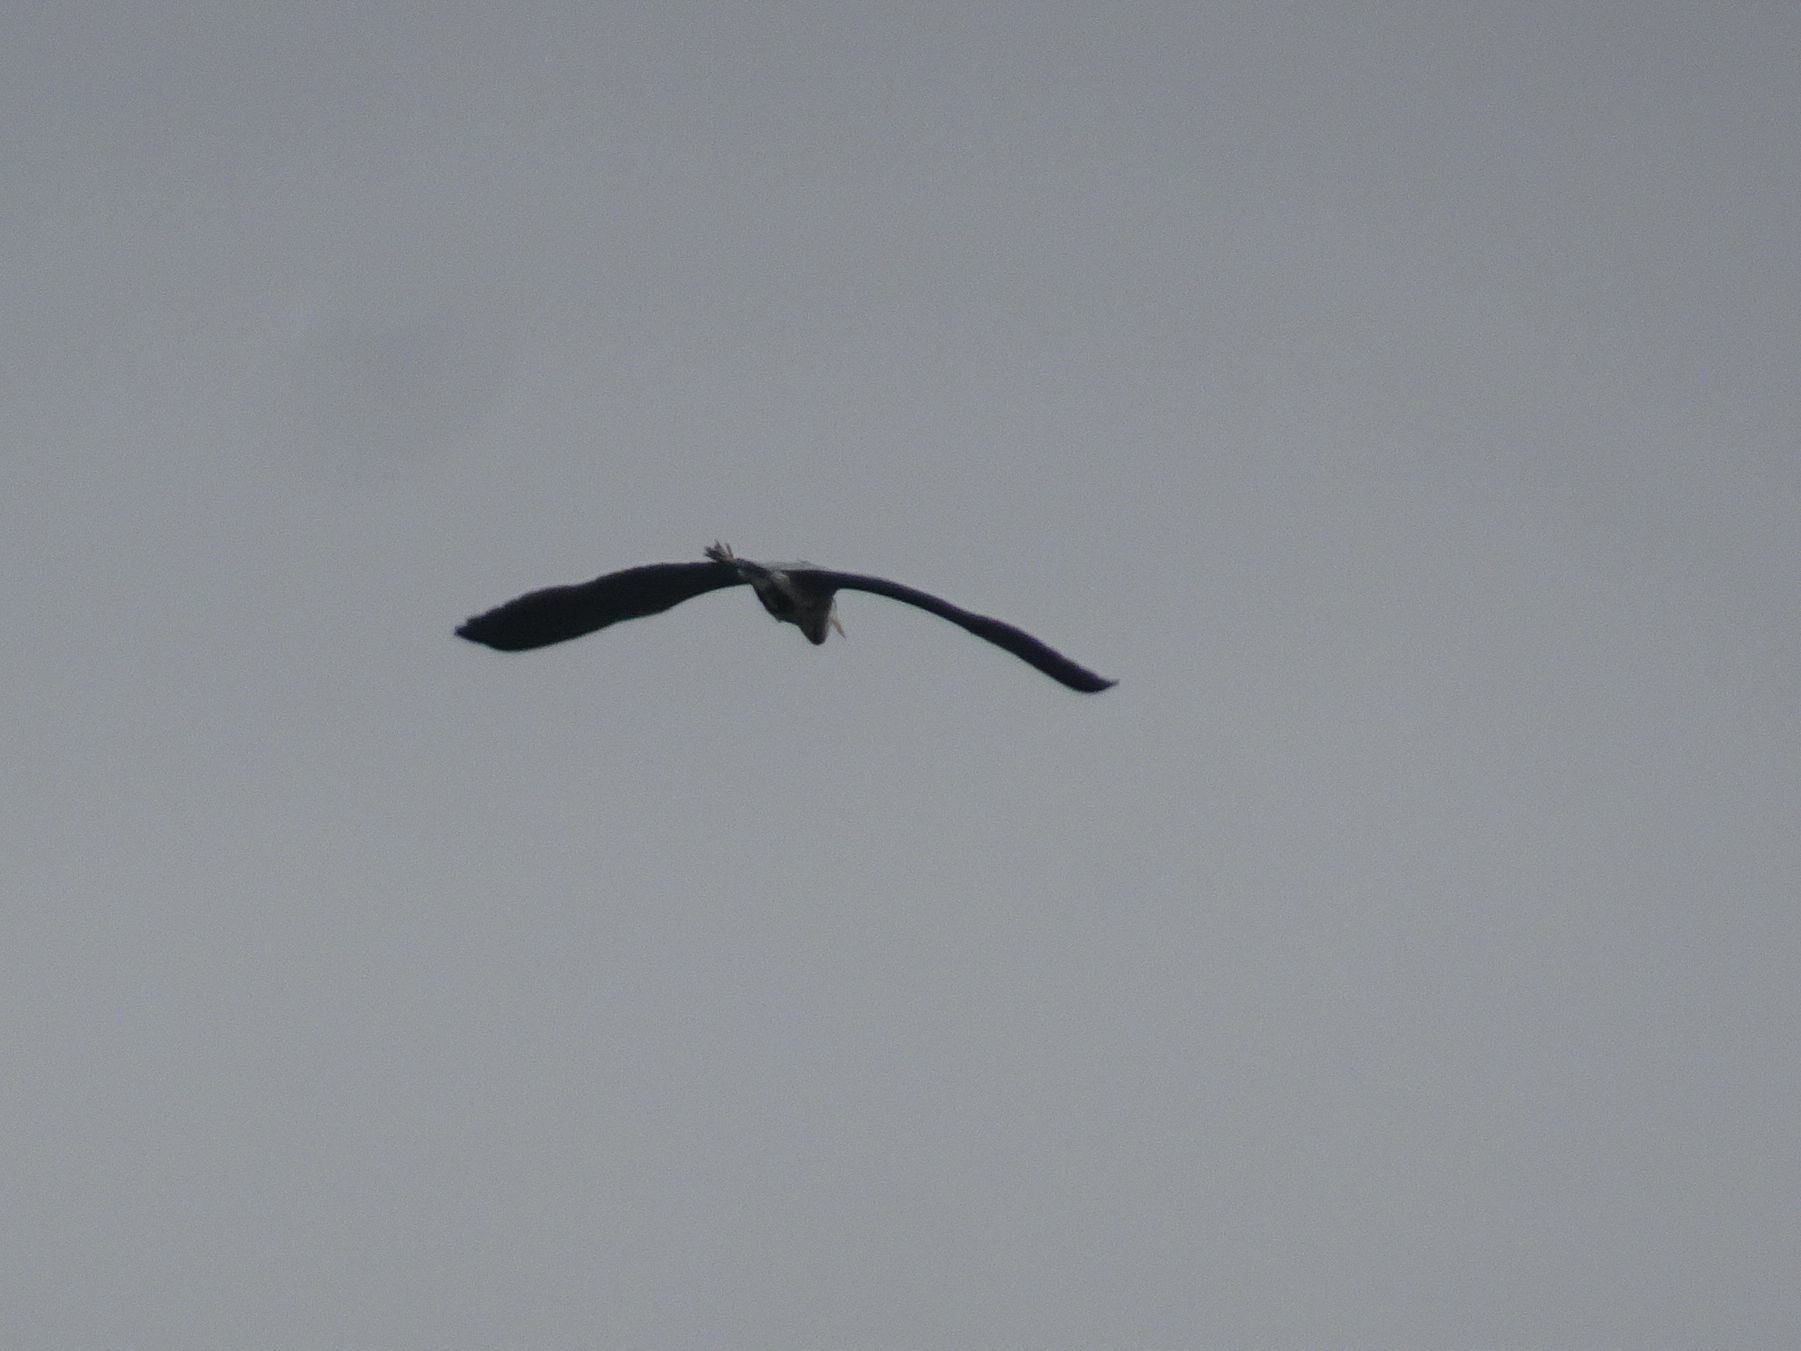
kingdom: Animalia
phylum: Chordata
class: Aves
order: Pelecaniformes
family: Ardeidae
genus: Ardea
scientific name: Ardea cinerea
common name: Grey heron
